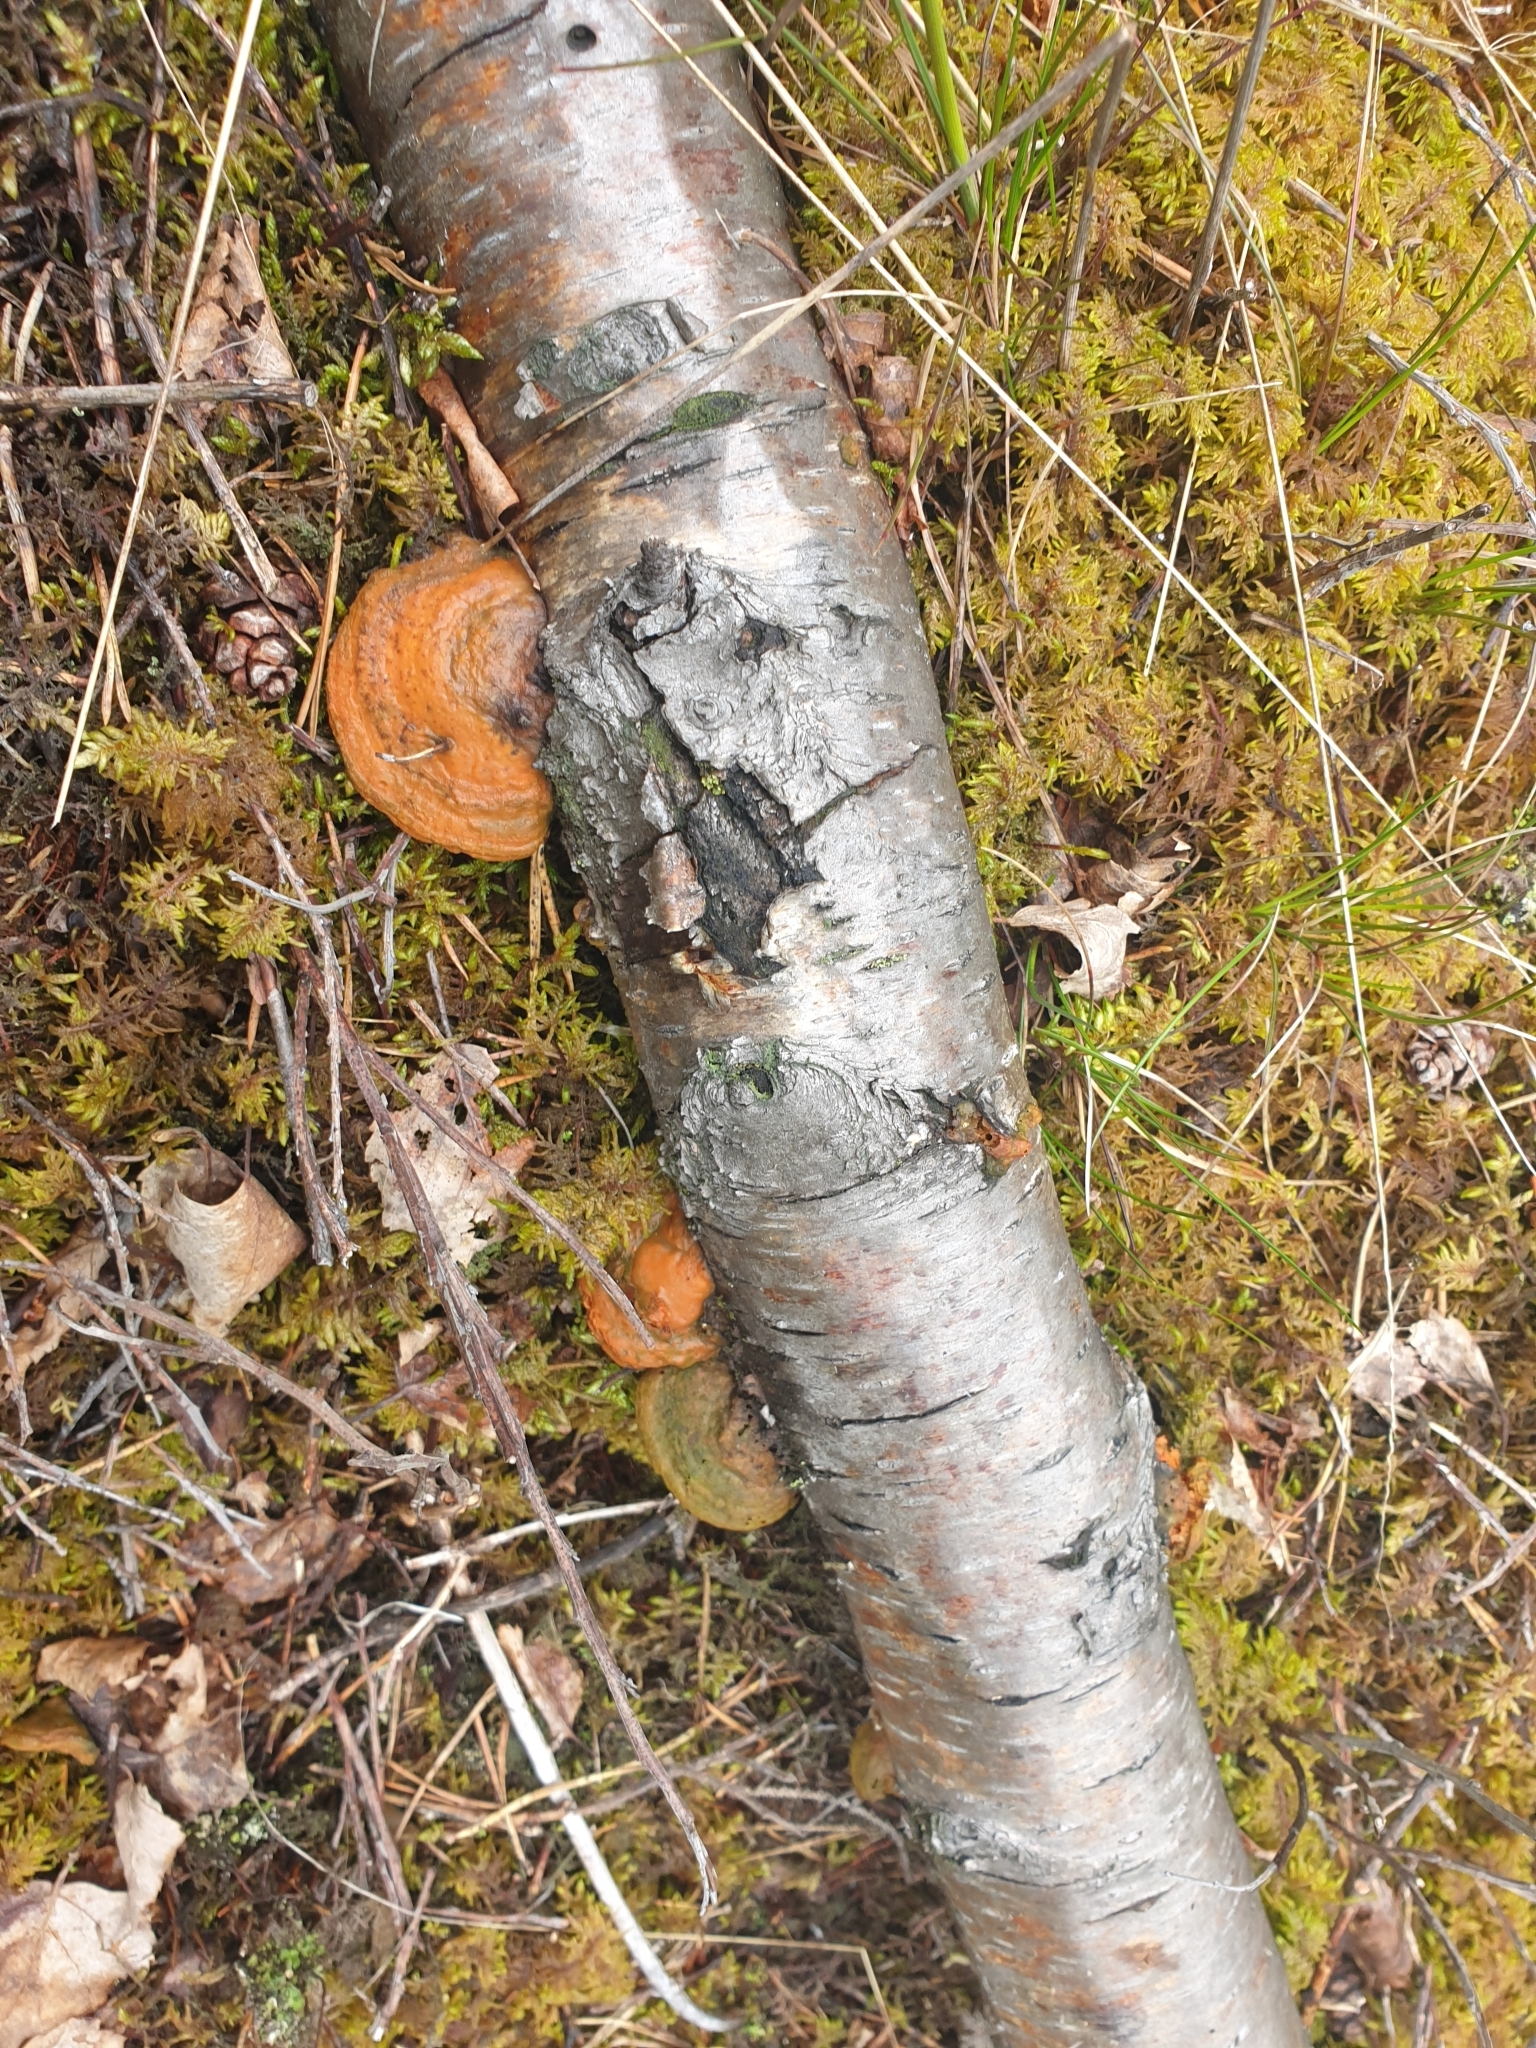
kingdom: Fungi
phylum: Basidiomycota
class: Agaricomycetes
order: Polyporales
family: Polyporaceae
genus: Trametes
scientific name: Trametes cinnabarina
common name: Northern cinnabar polypore
